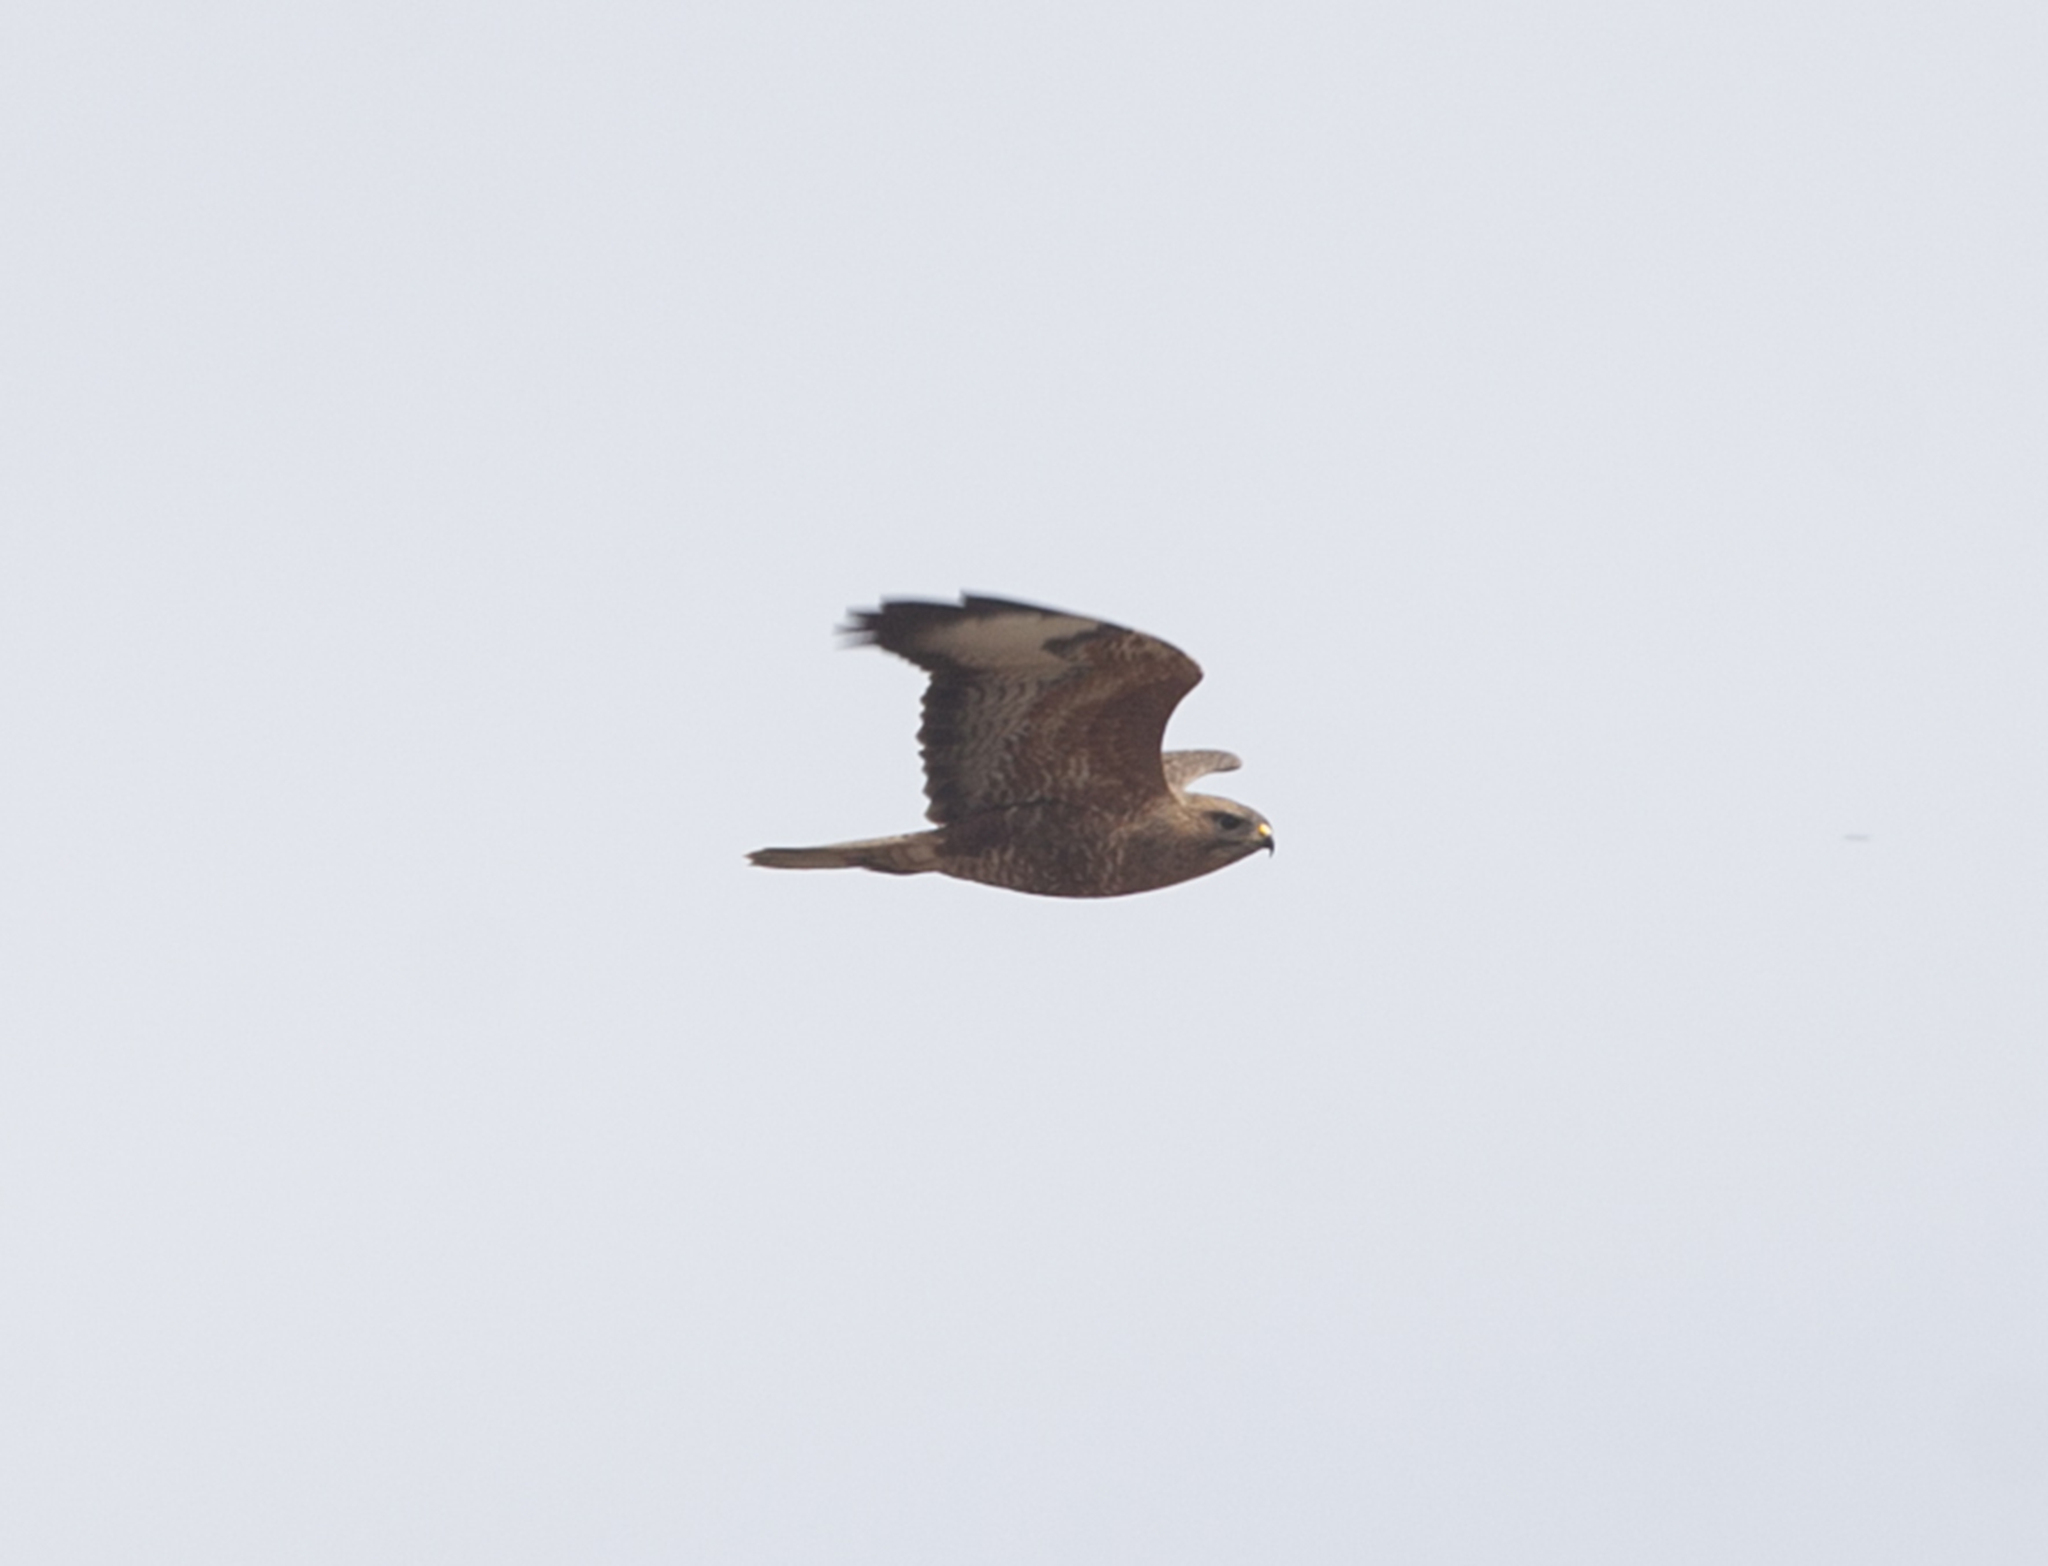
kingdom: Animalia
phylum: Chordata
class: Aves
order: Accipitriformes
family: Accipitridae
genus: Buteo
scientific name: Buteo buteo
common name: Common buzzard
